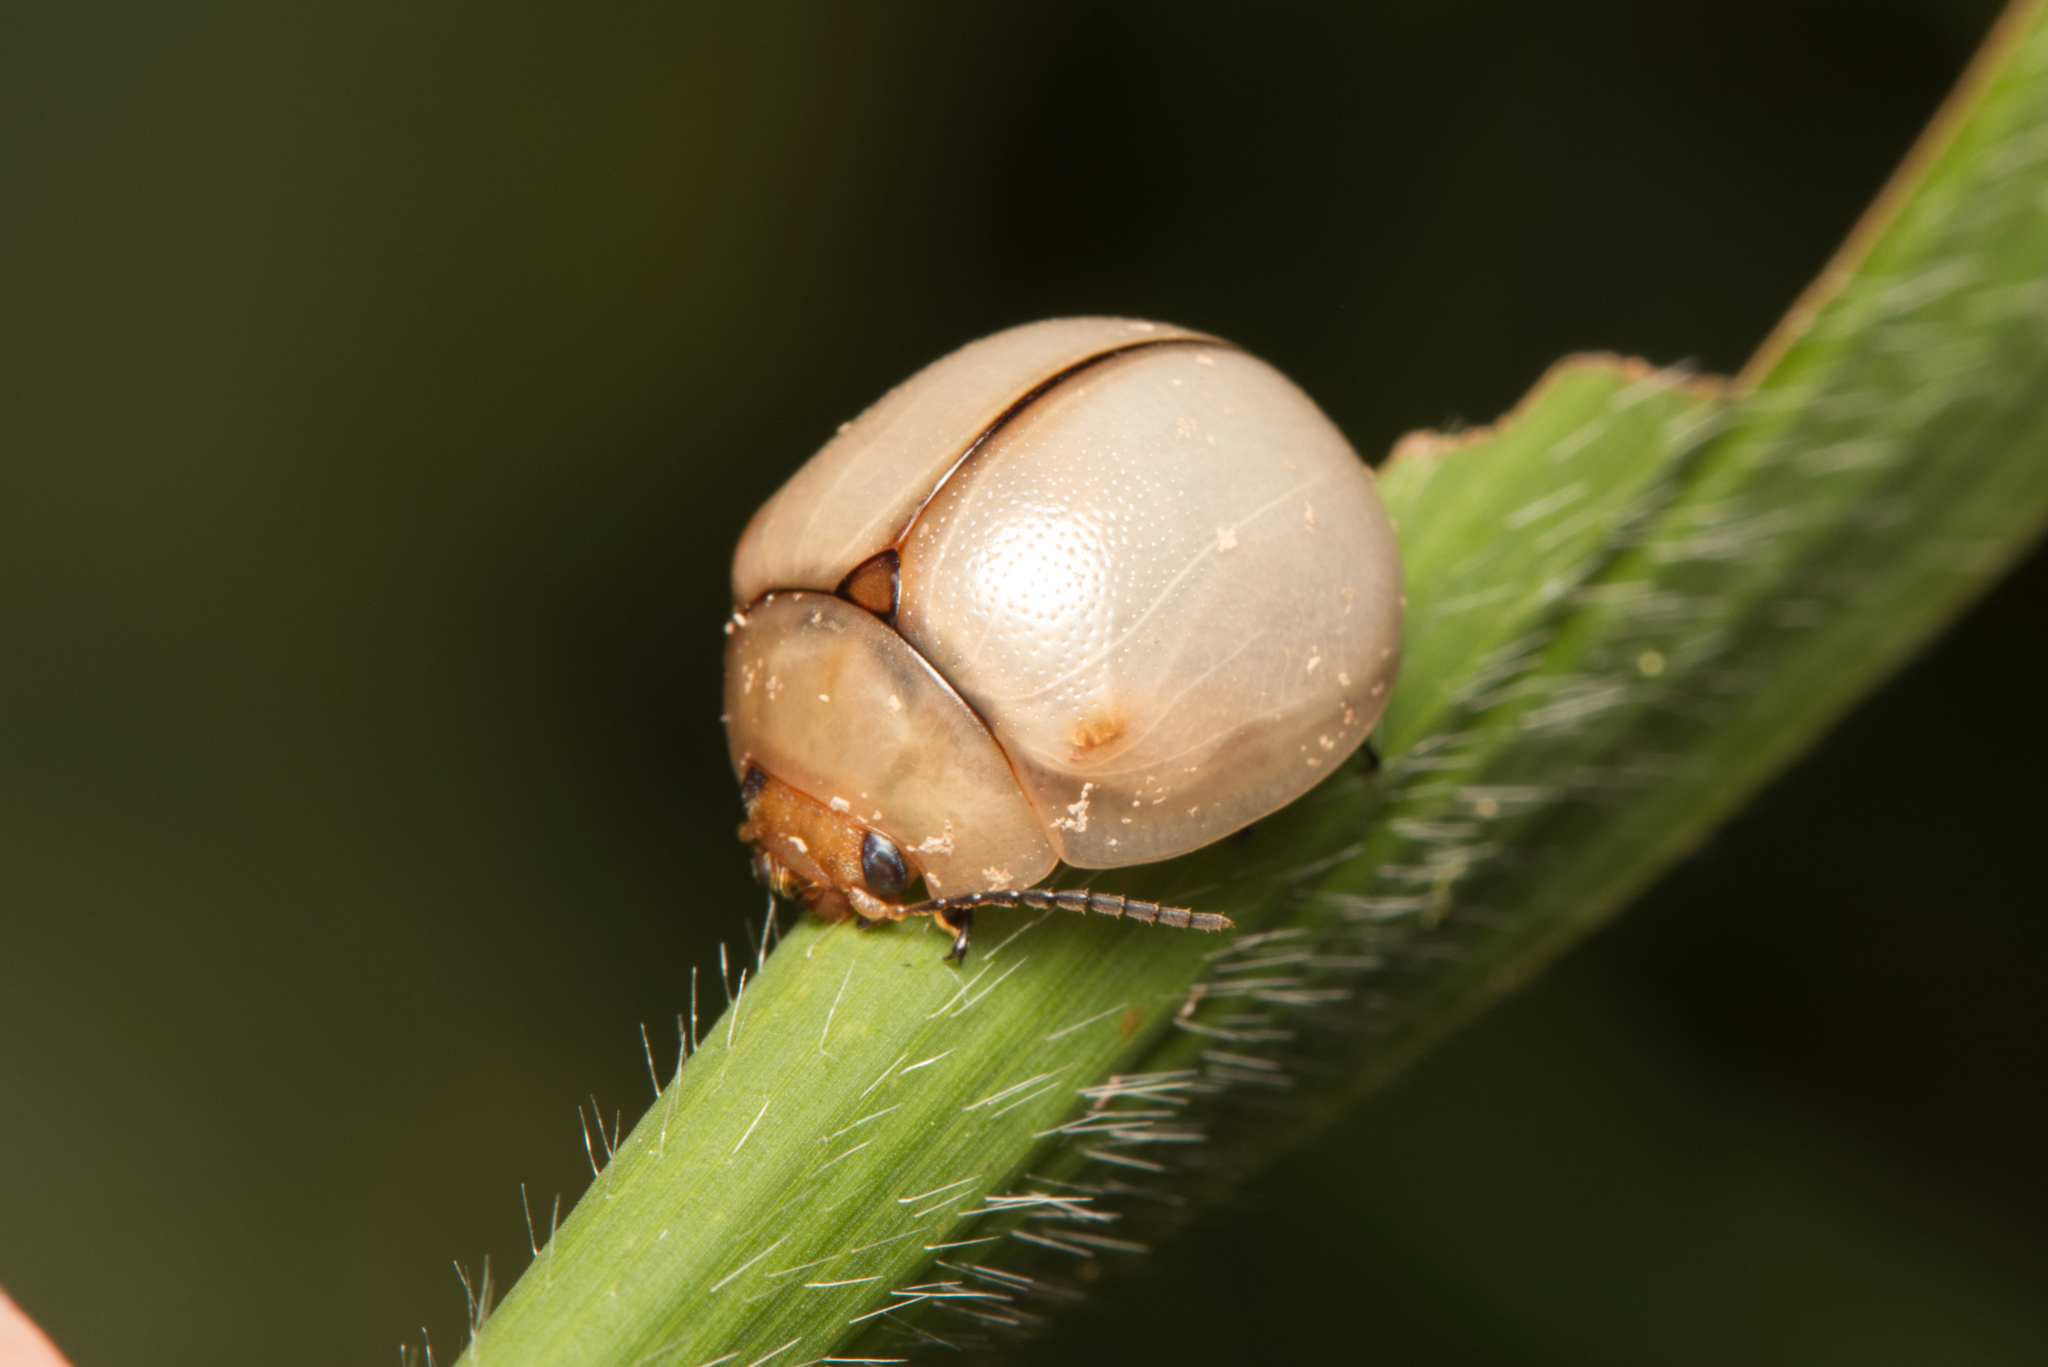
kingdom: Animalia
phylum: Arthropoda
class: Insecta
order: Coleoptera
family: Chrysomelidae
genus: Dicranosterna
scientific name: Dicranosterna
